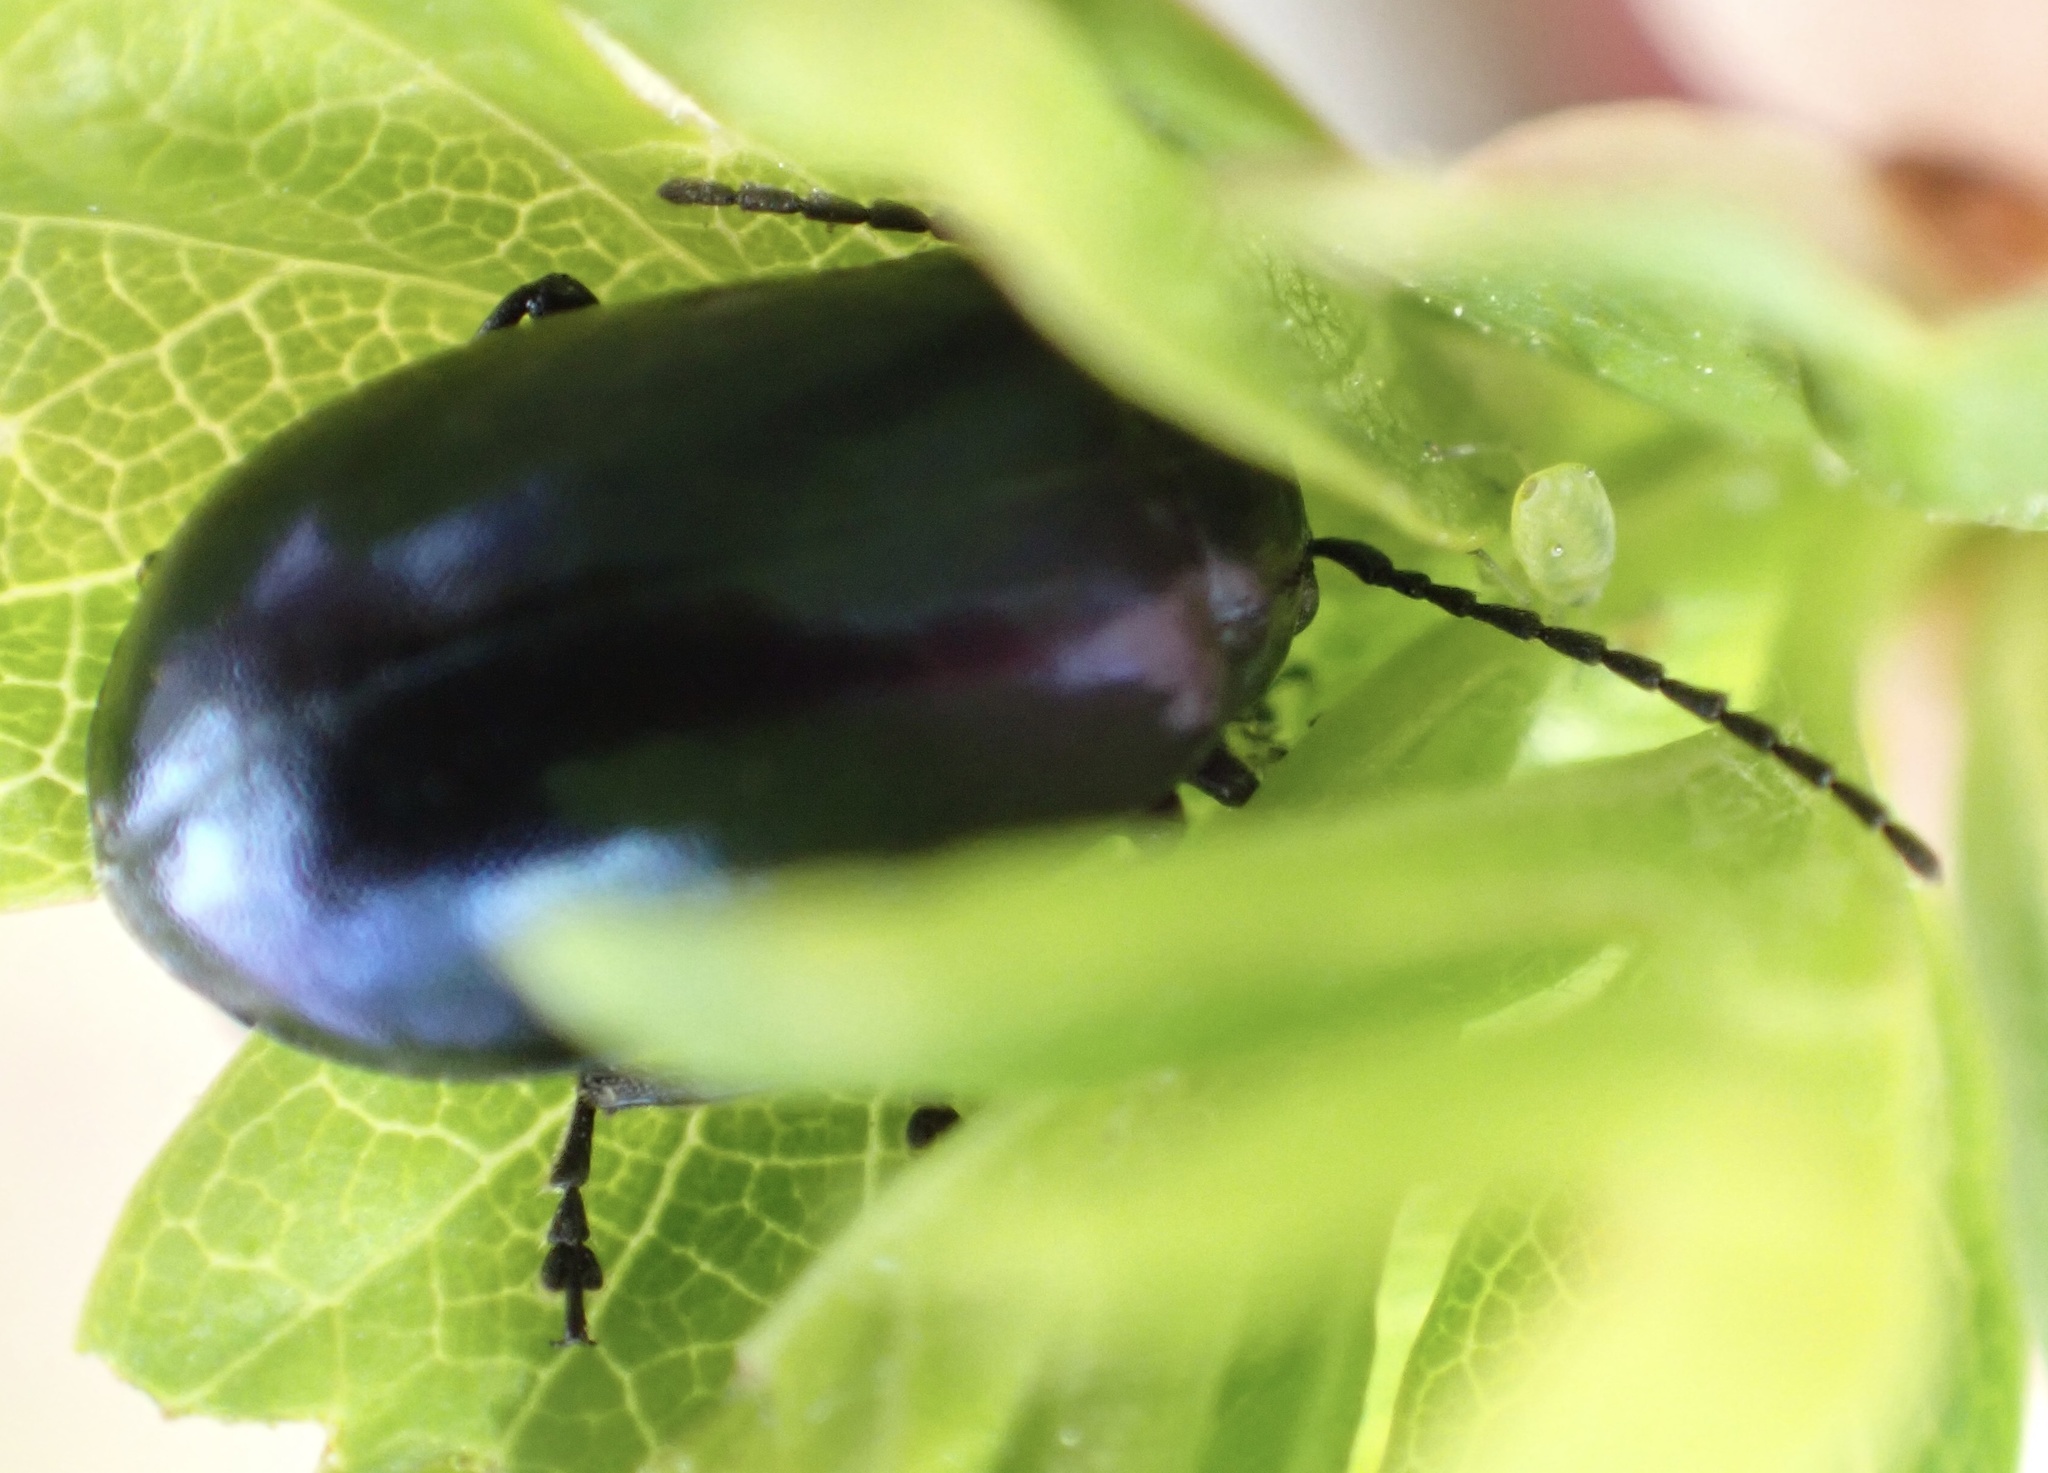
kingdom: Animalia
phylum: Arthropoda
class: Insecta
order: Coleoptera
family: Chrysomelidae
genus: Agelastica
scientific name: Agelastica alni
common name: Alder leaf beetle
